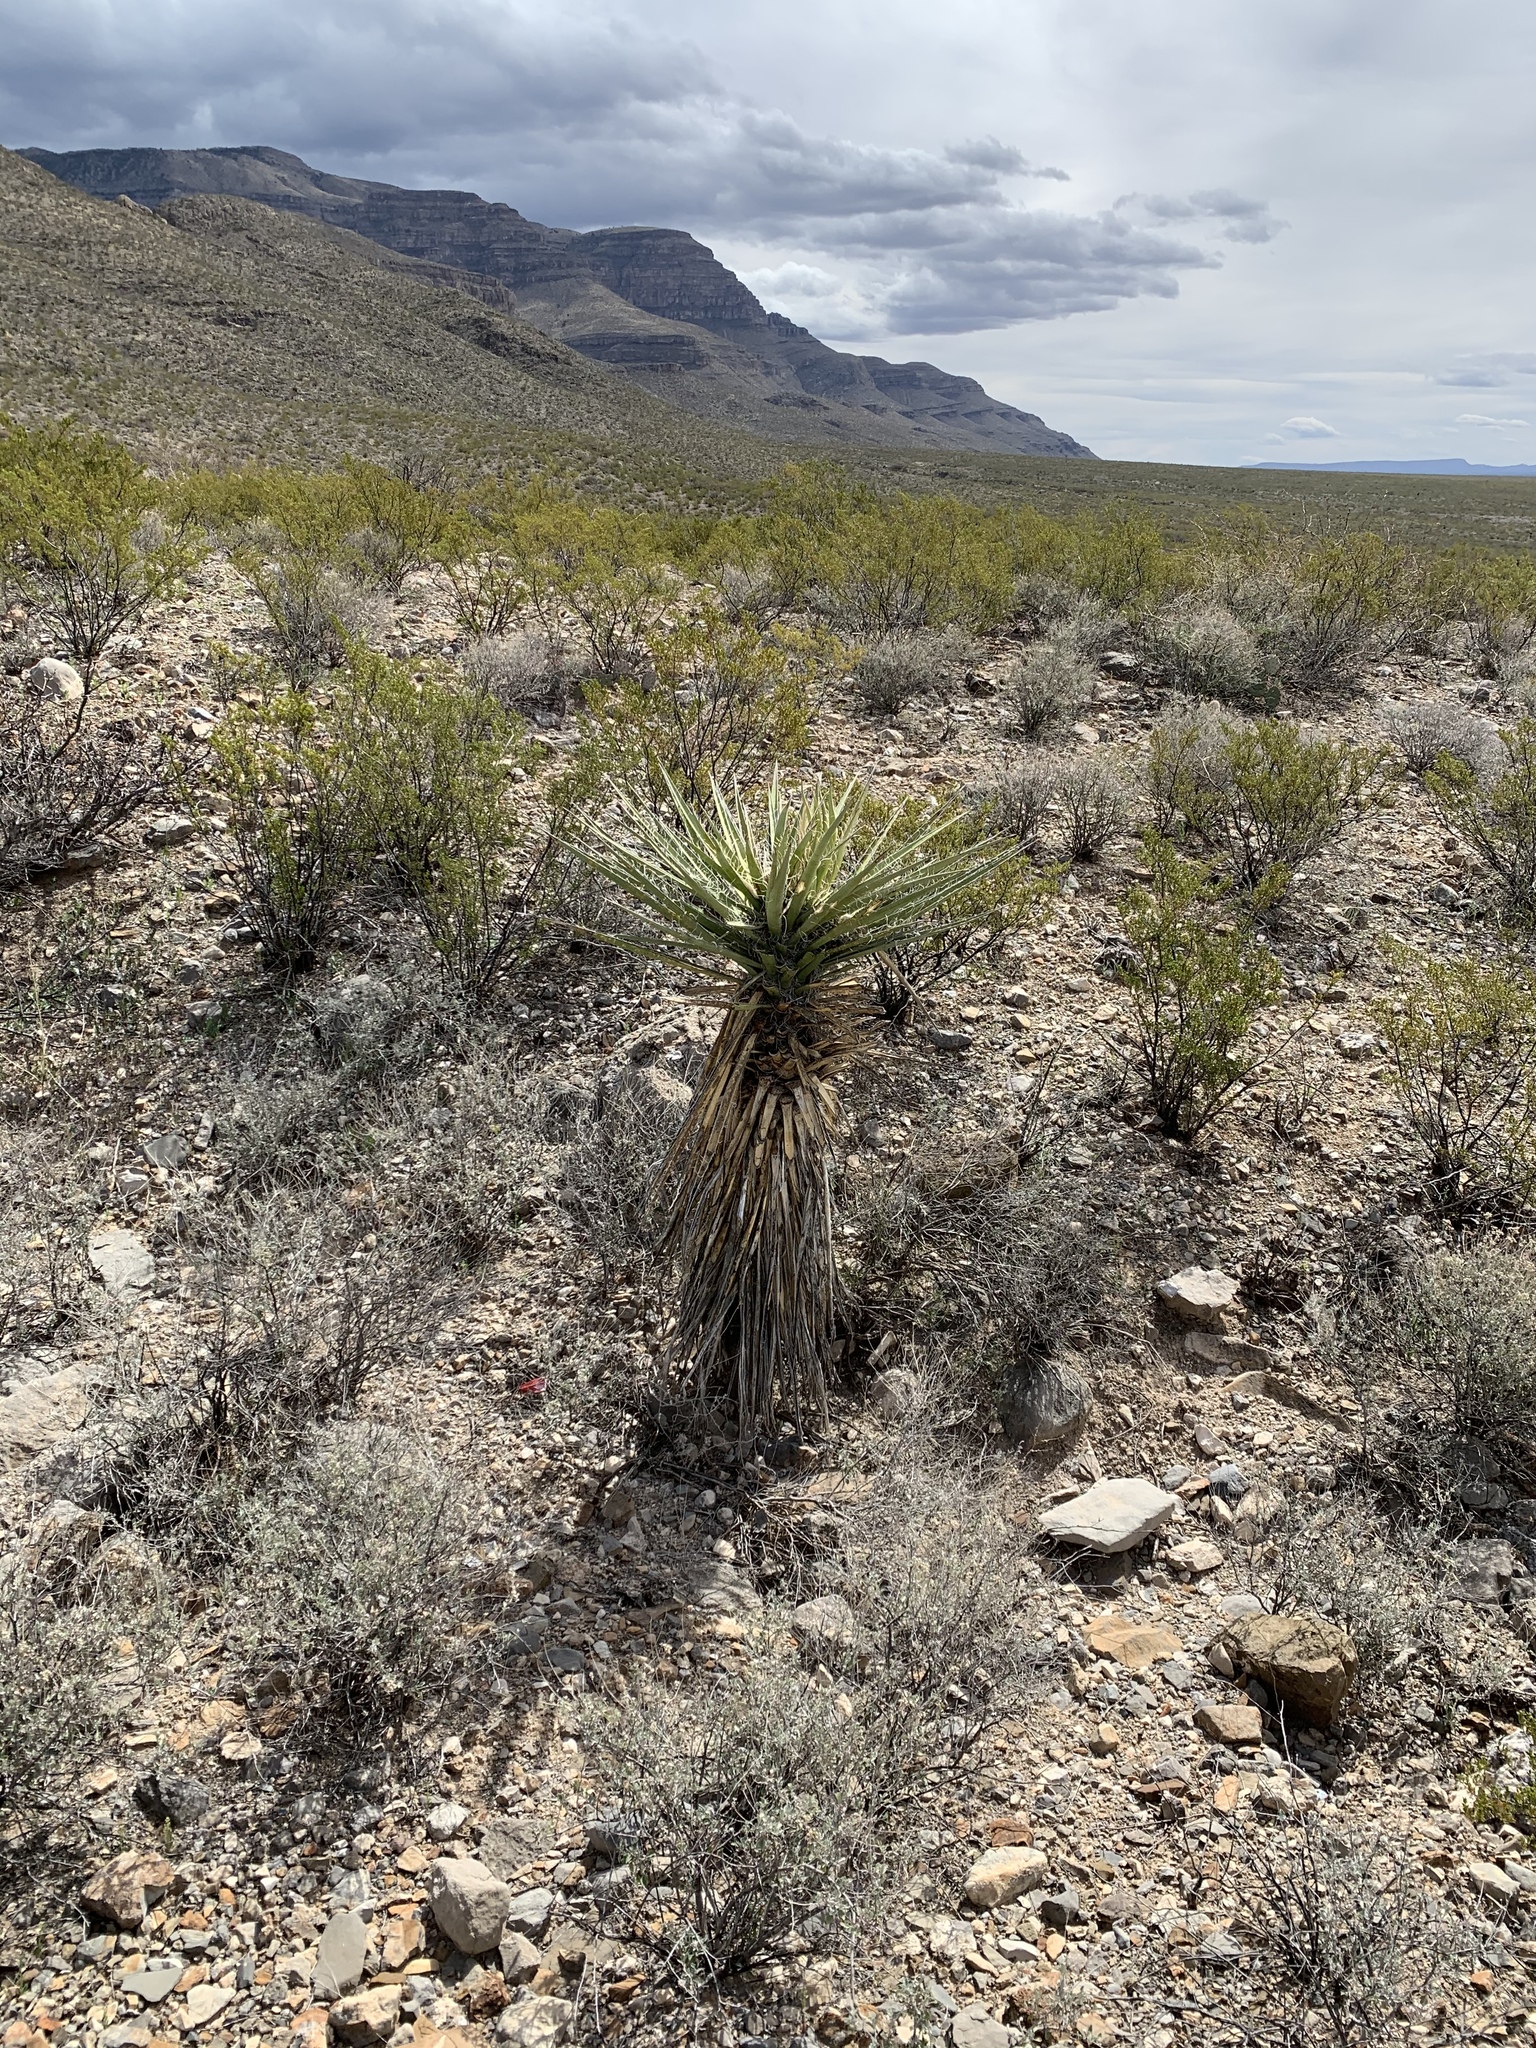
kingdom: Plantae
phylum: Tracheophyta
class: Liliopsida
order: Asparagales
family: Asparagaceae
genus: Yucca
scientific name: Yucca treculiana
